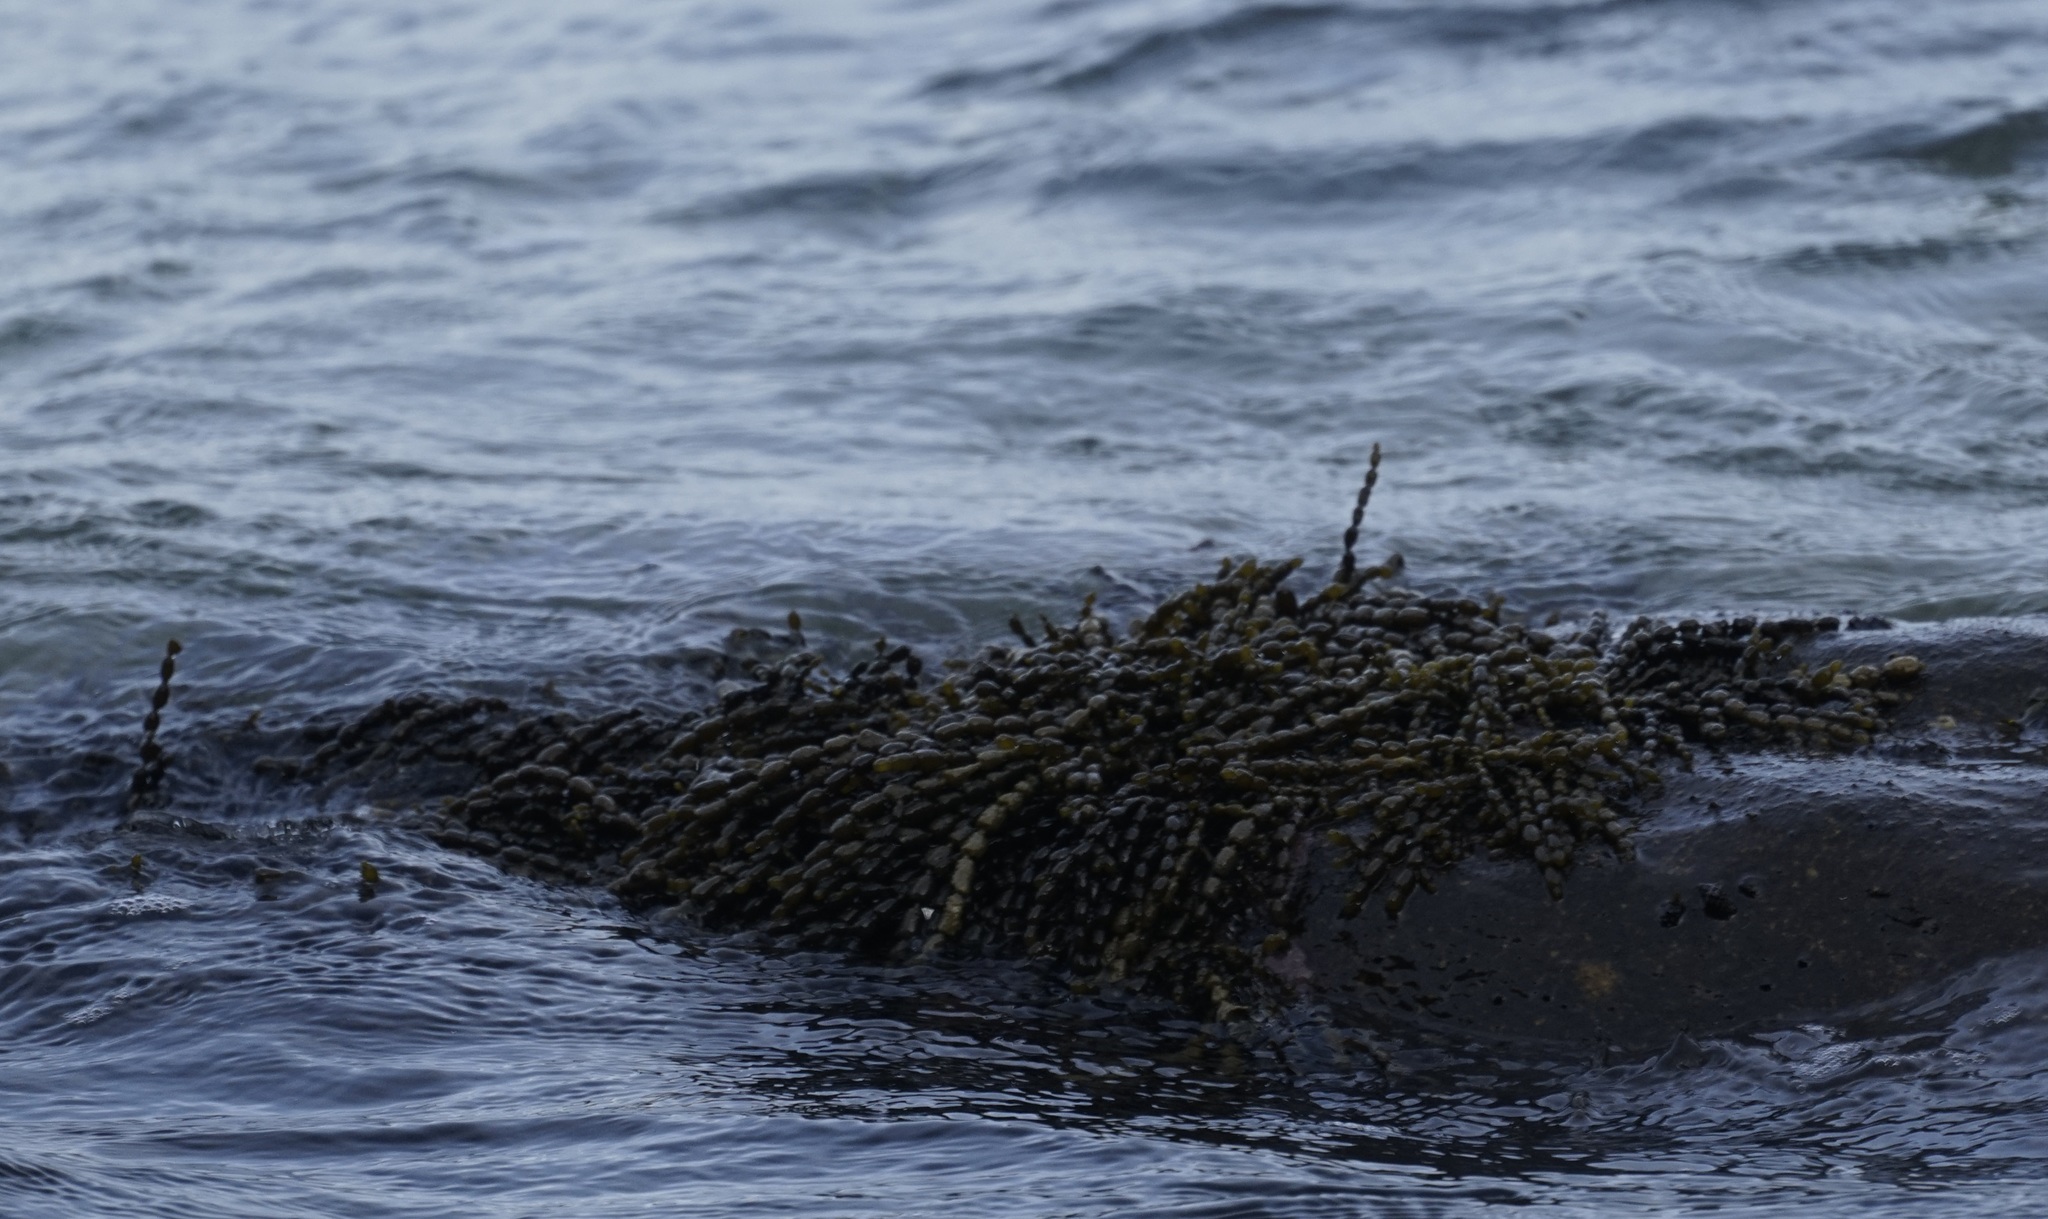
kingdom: Chromista
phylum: Ochrophyta
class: Phaeophyceae
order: Fucales
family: Hormosiraceae
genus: Hormosira
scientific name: Hormosira banksii
